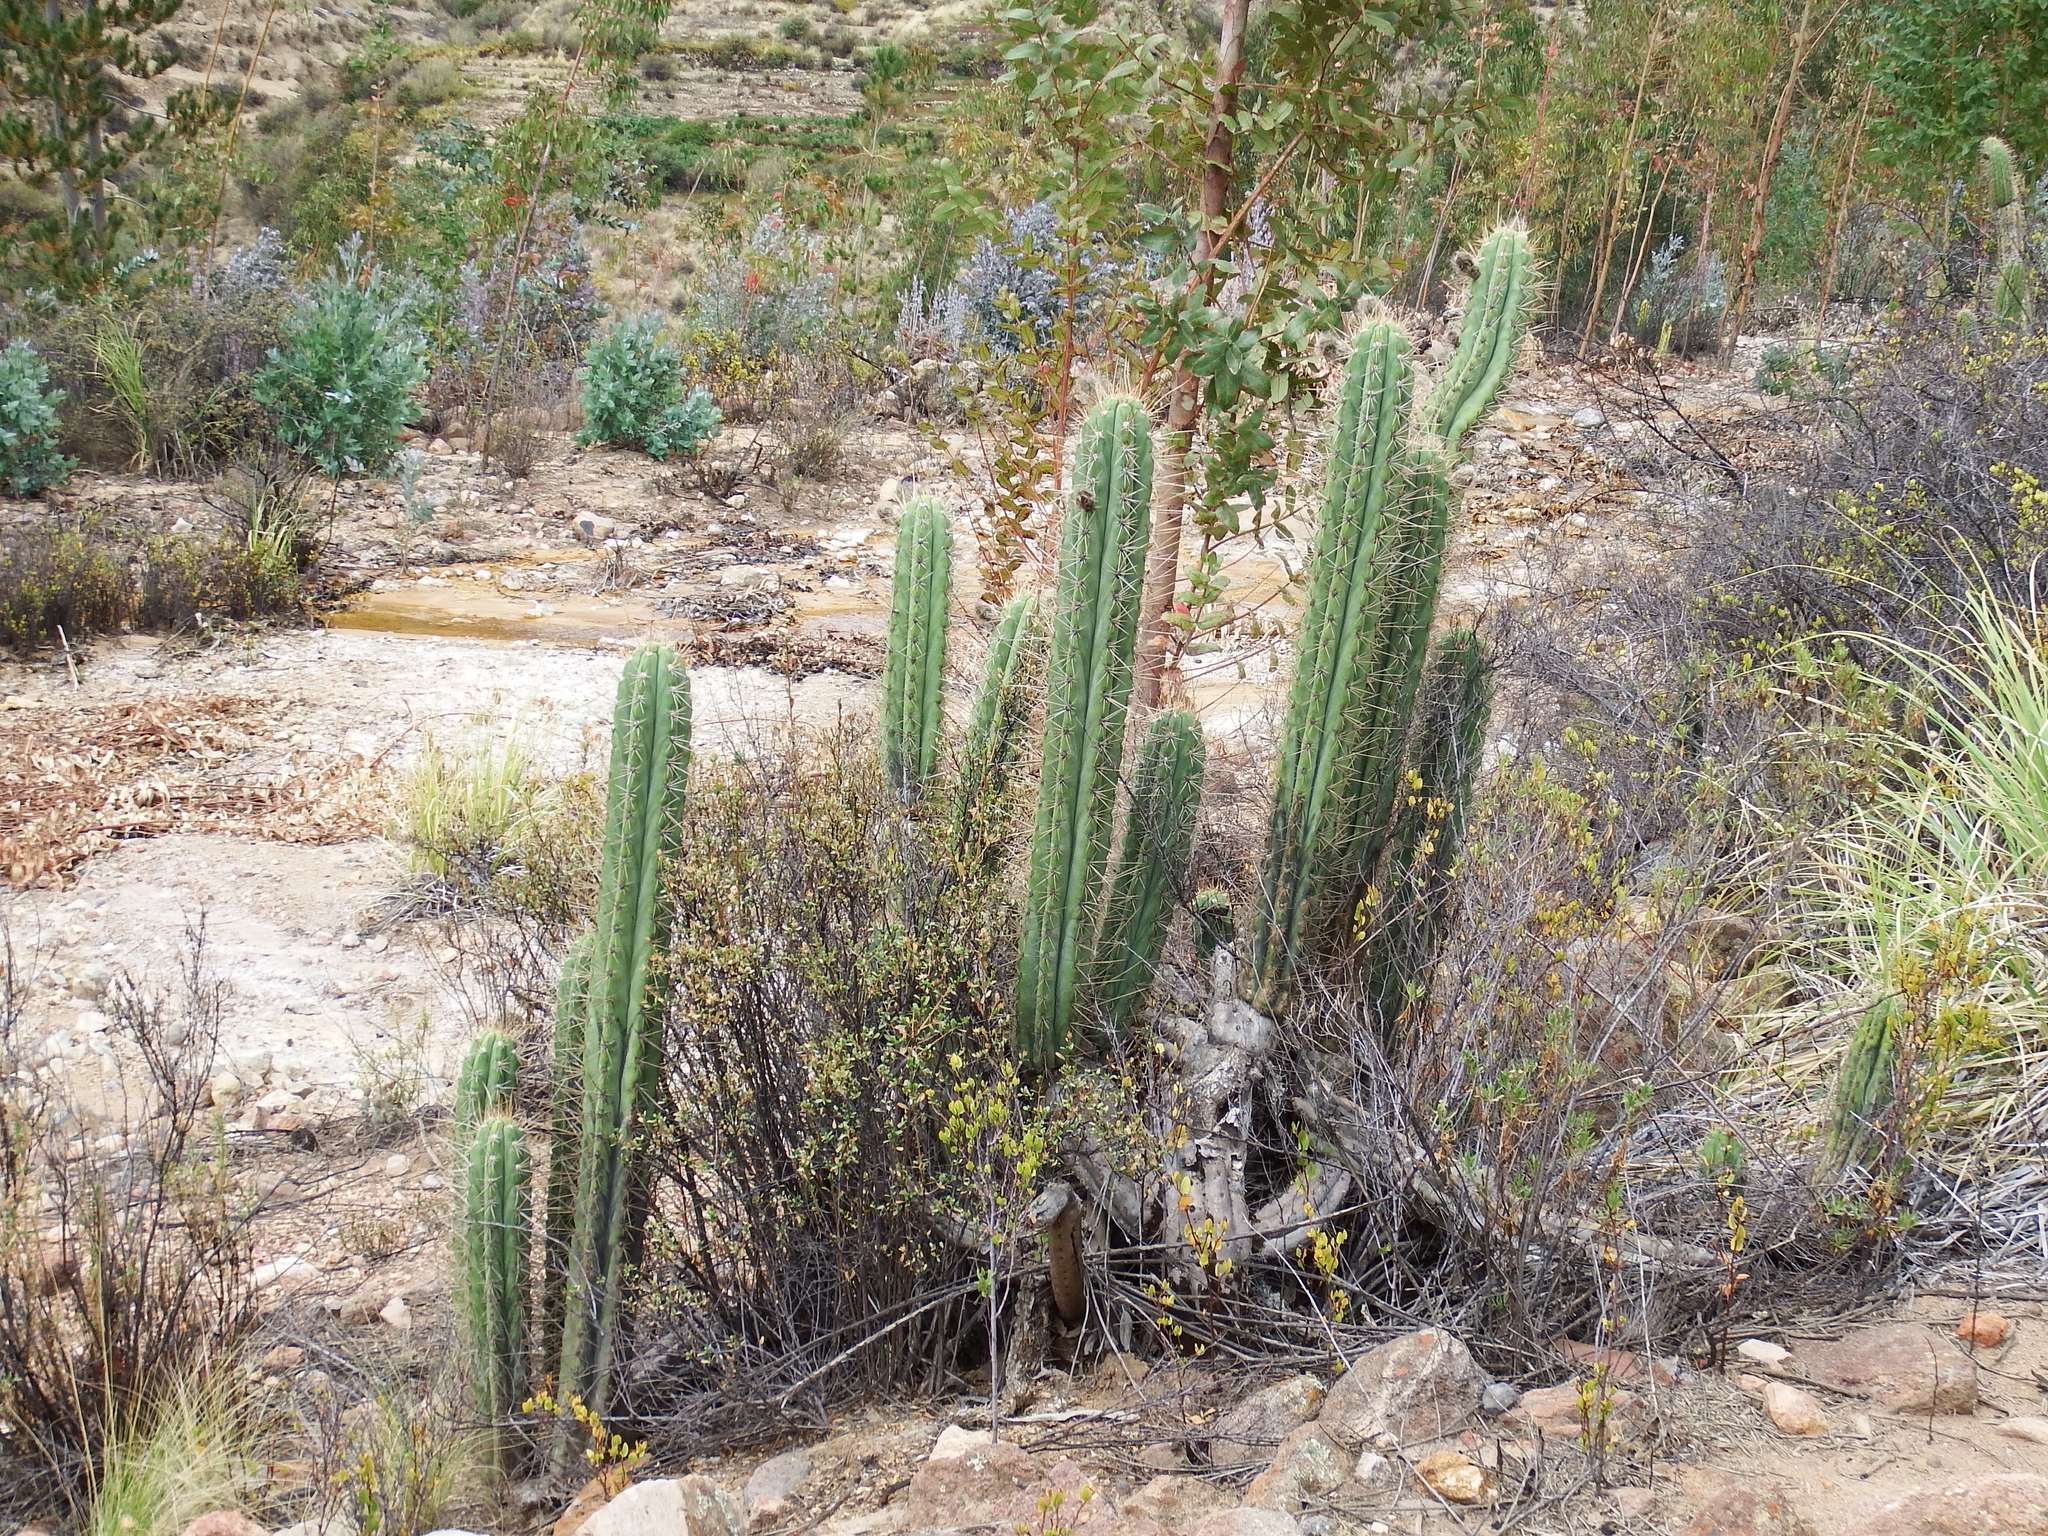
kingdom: Plantae
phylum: Tracheophyta
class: Magnoliopsida
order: Caryophyllales
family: Cactaceae
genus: Trichocereus
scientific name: Trichocereus macrogonus
